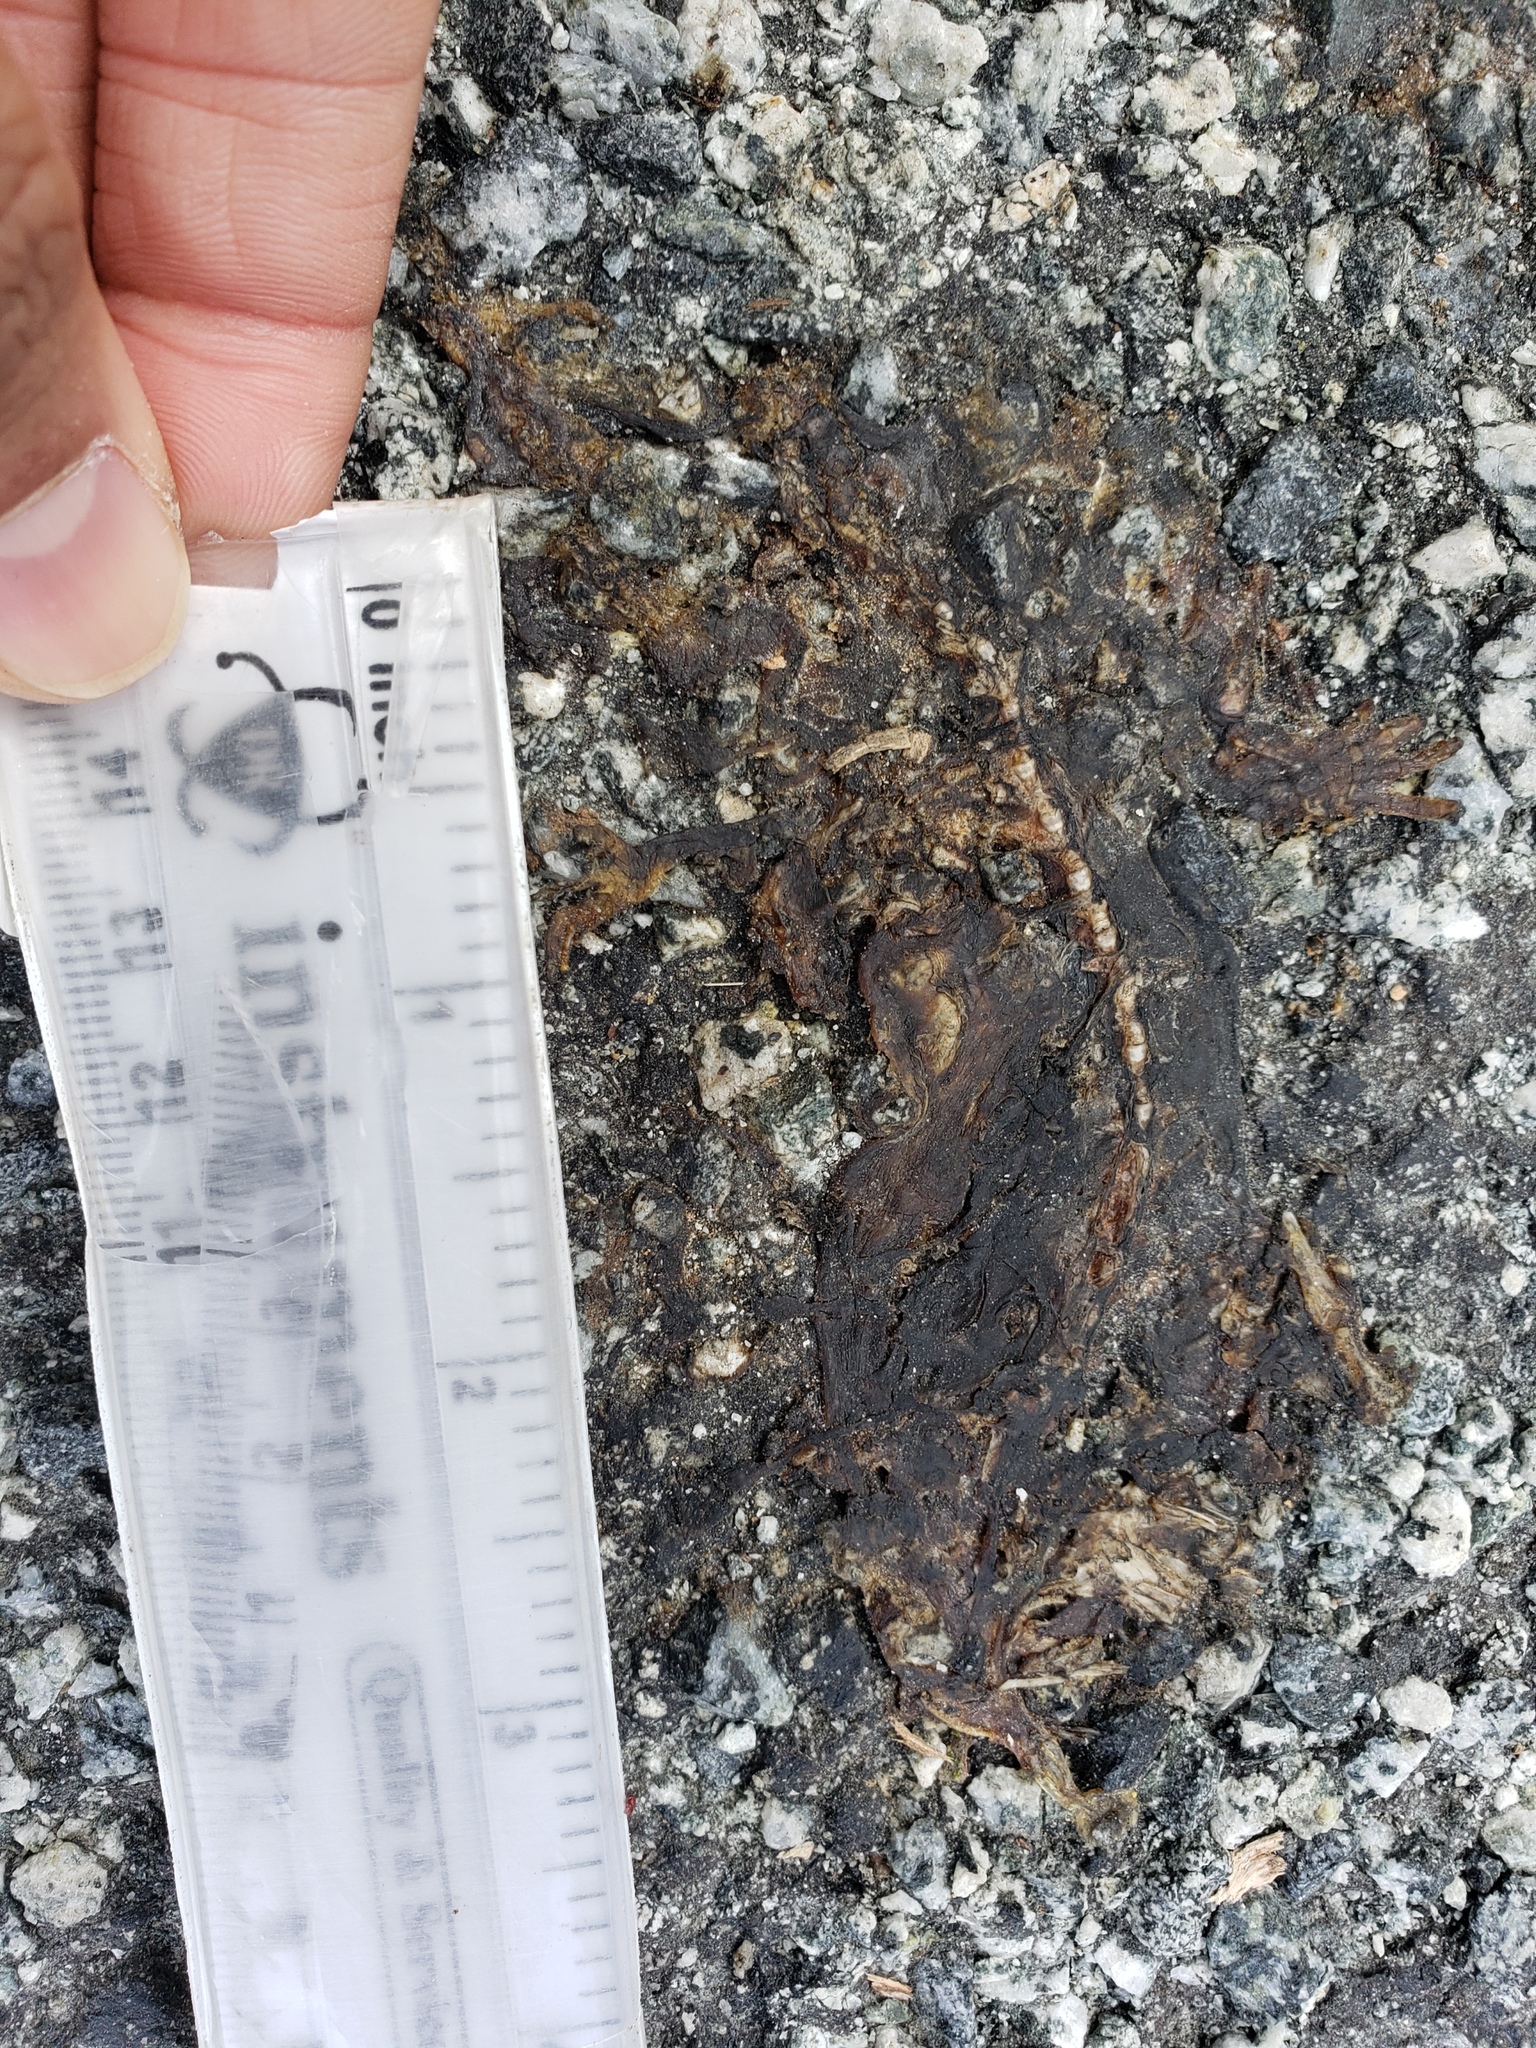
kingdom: Animalia
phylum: Chordata
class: Amphibia
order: Caudata
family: Salamandridae
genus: Taricha
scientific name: Taricha
